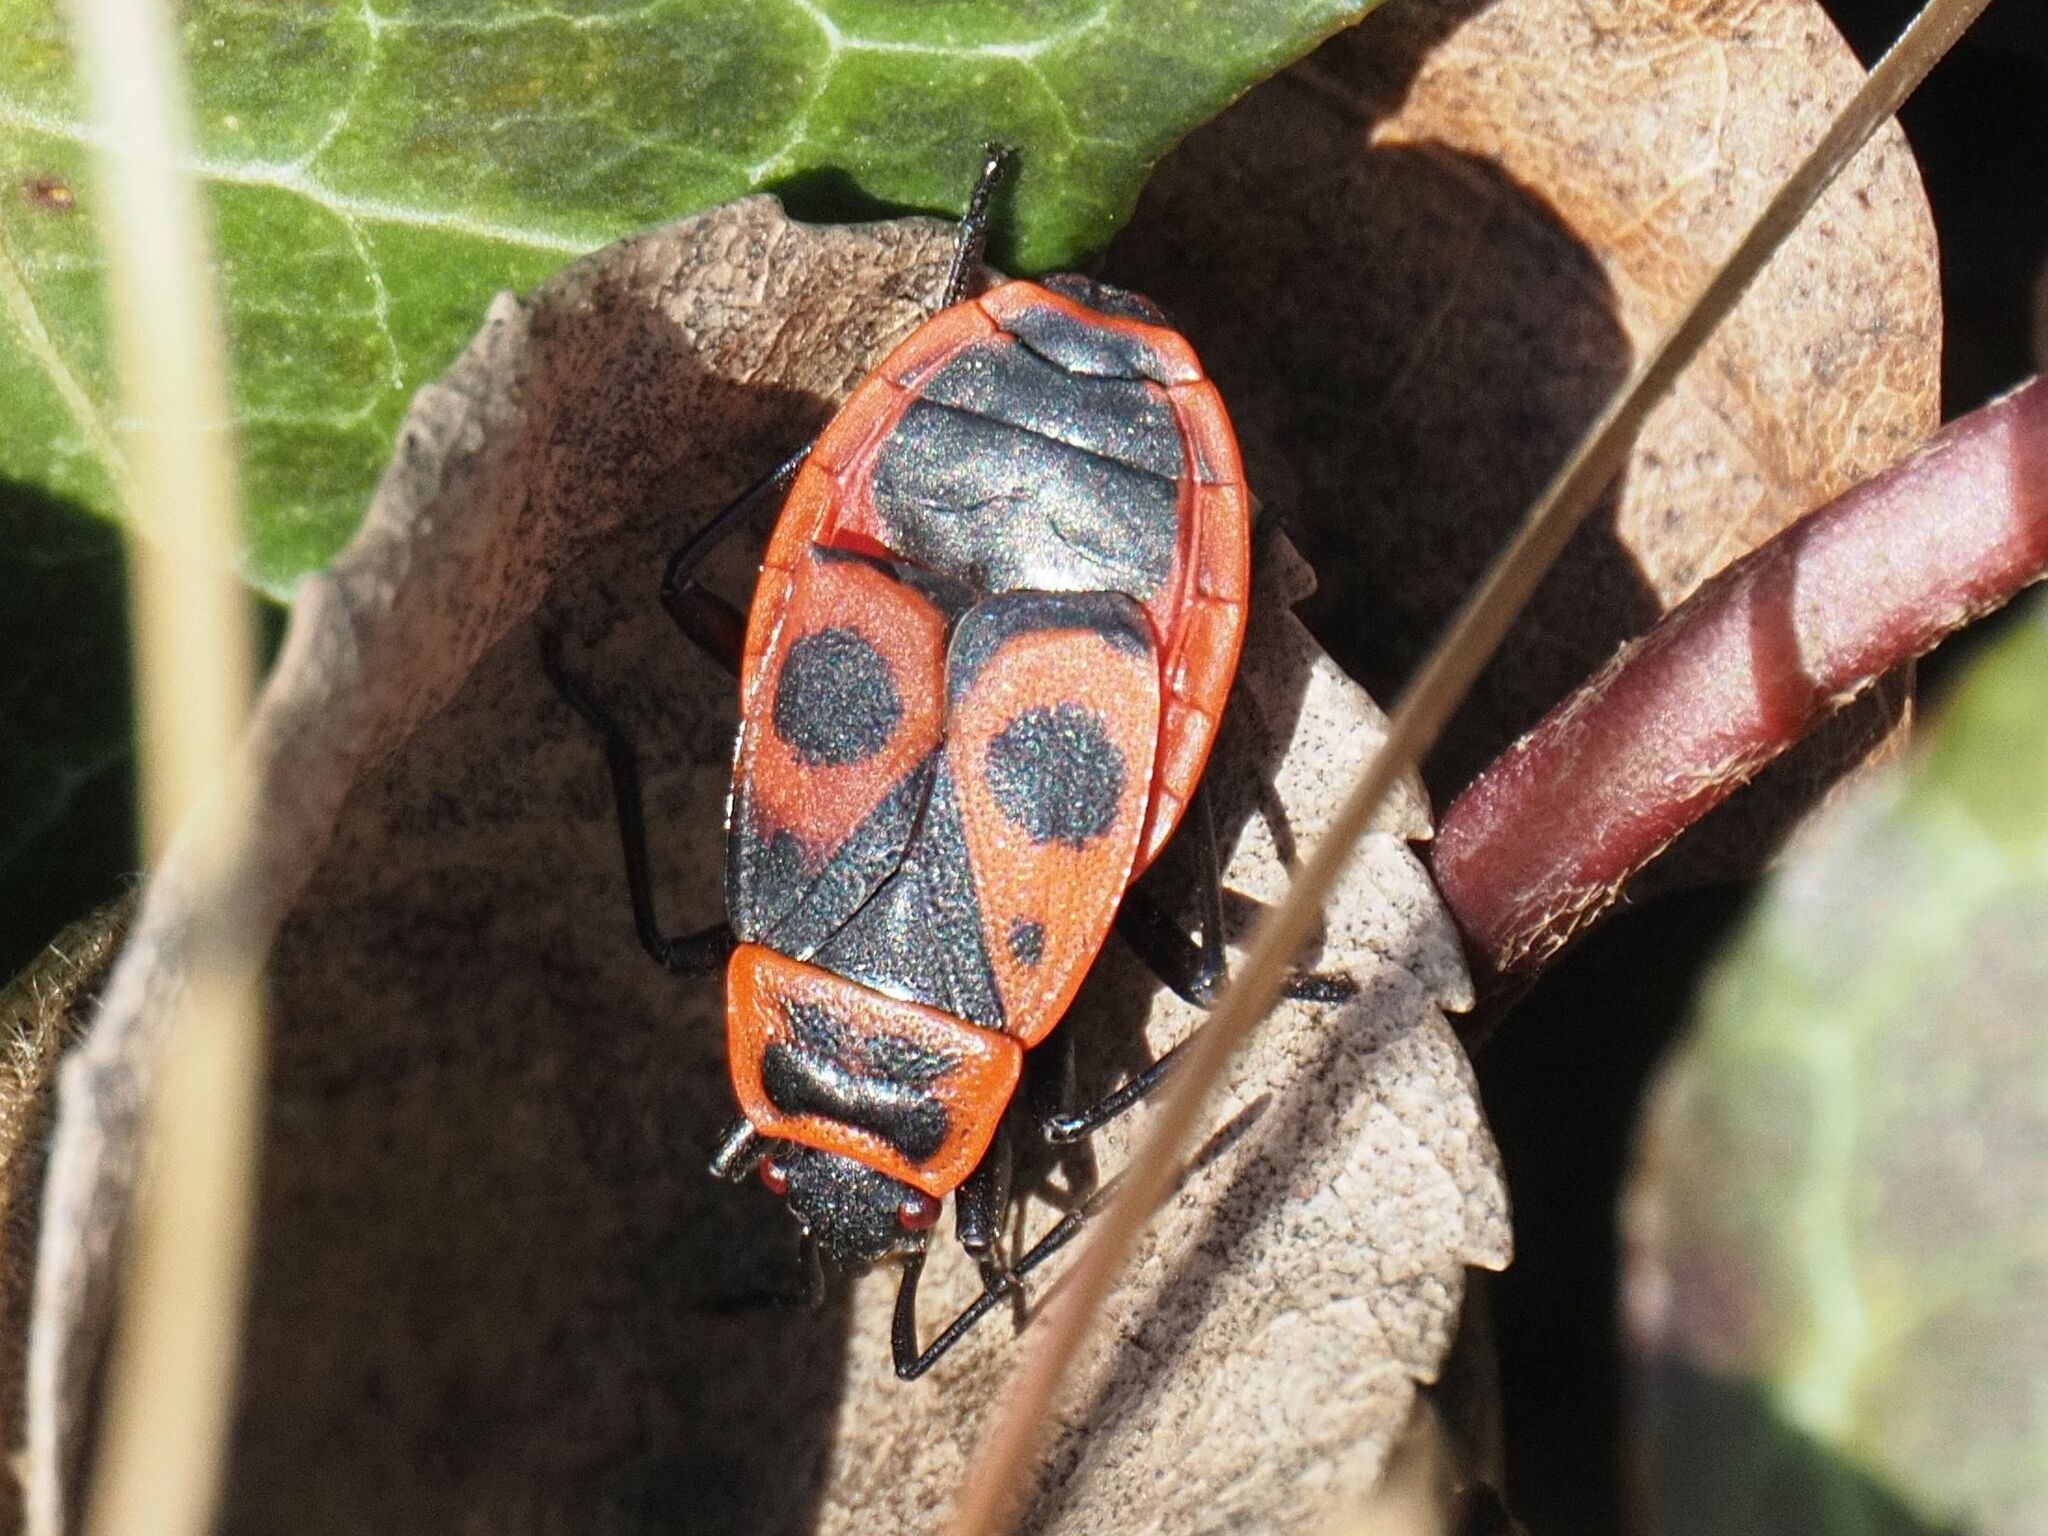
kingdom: Animalia
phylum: Arthropoda
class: Insecta
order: Hemiptera
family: Pyrrhocoridae
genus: Pyrrhocoris
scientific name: Pyrrhocoris apterus
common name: Firebug
